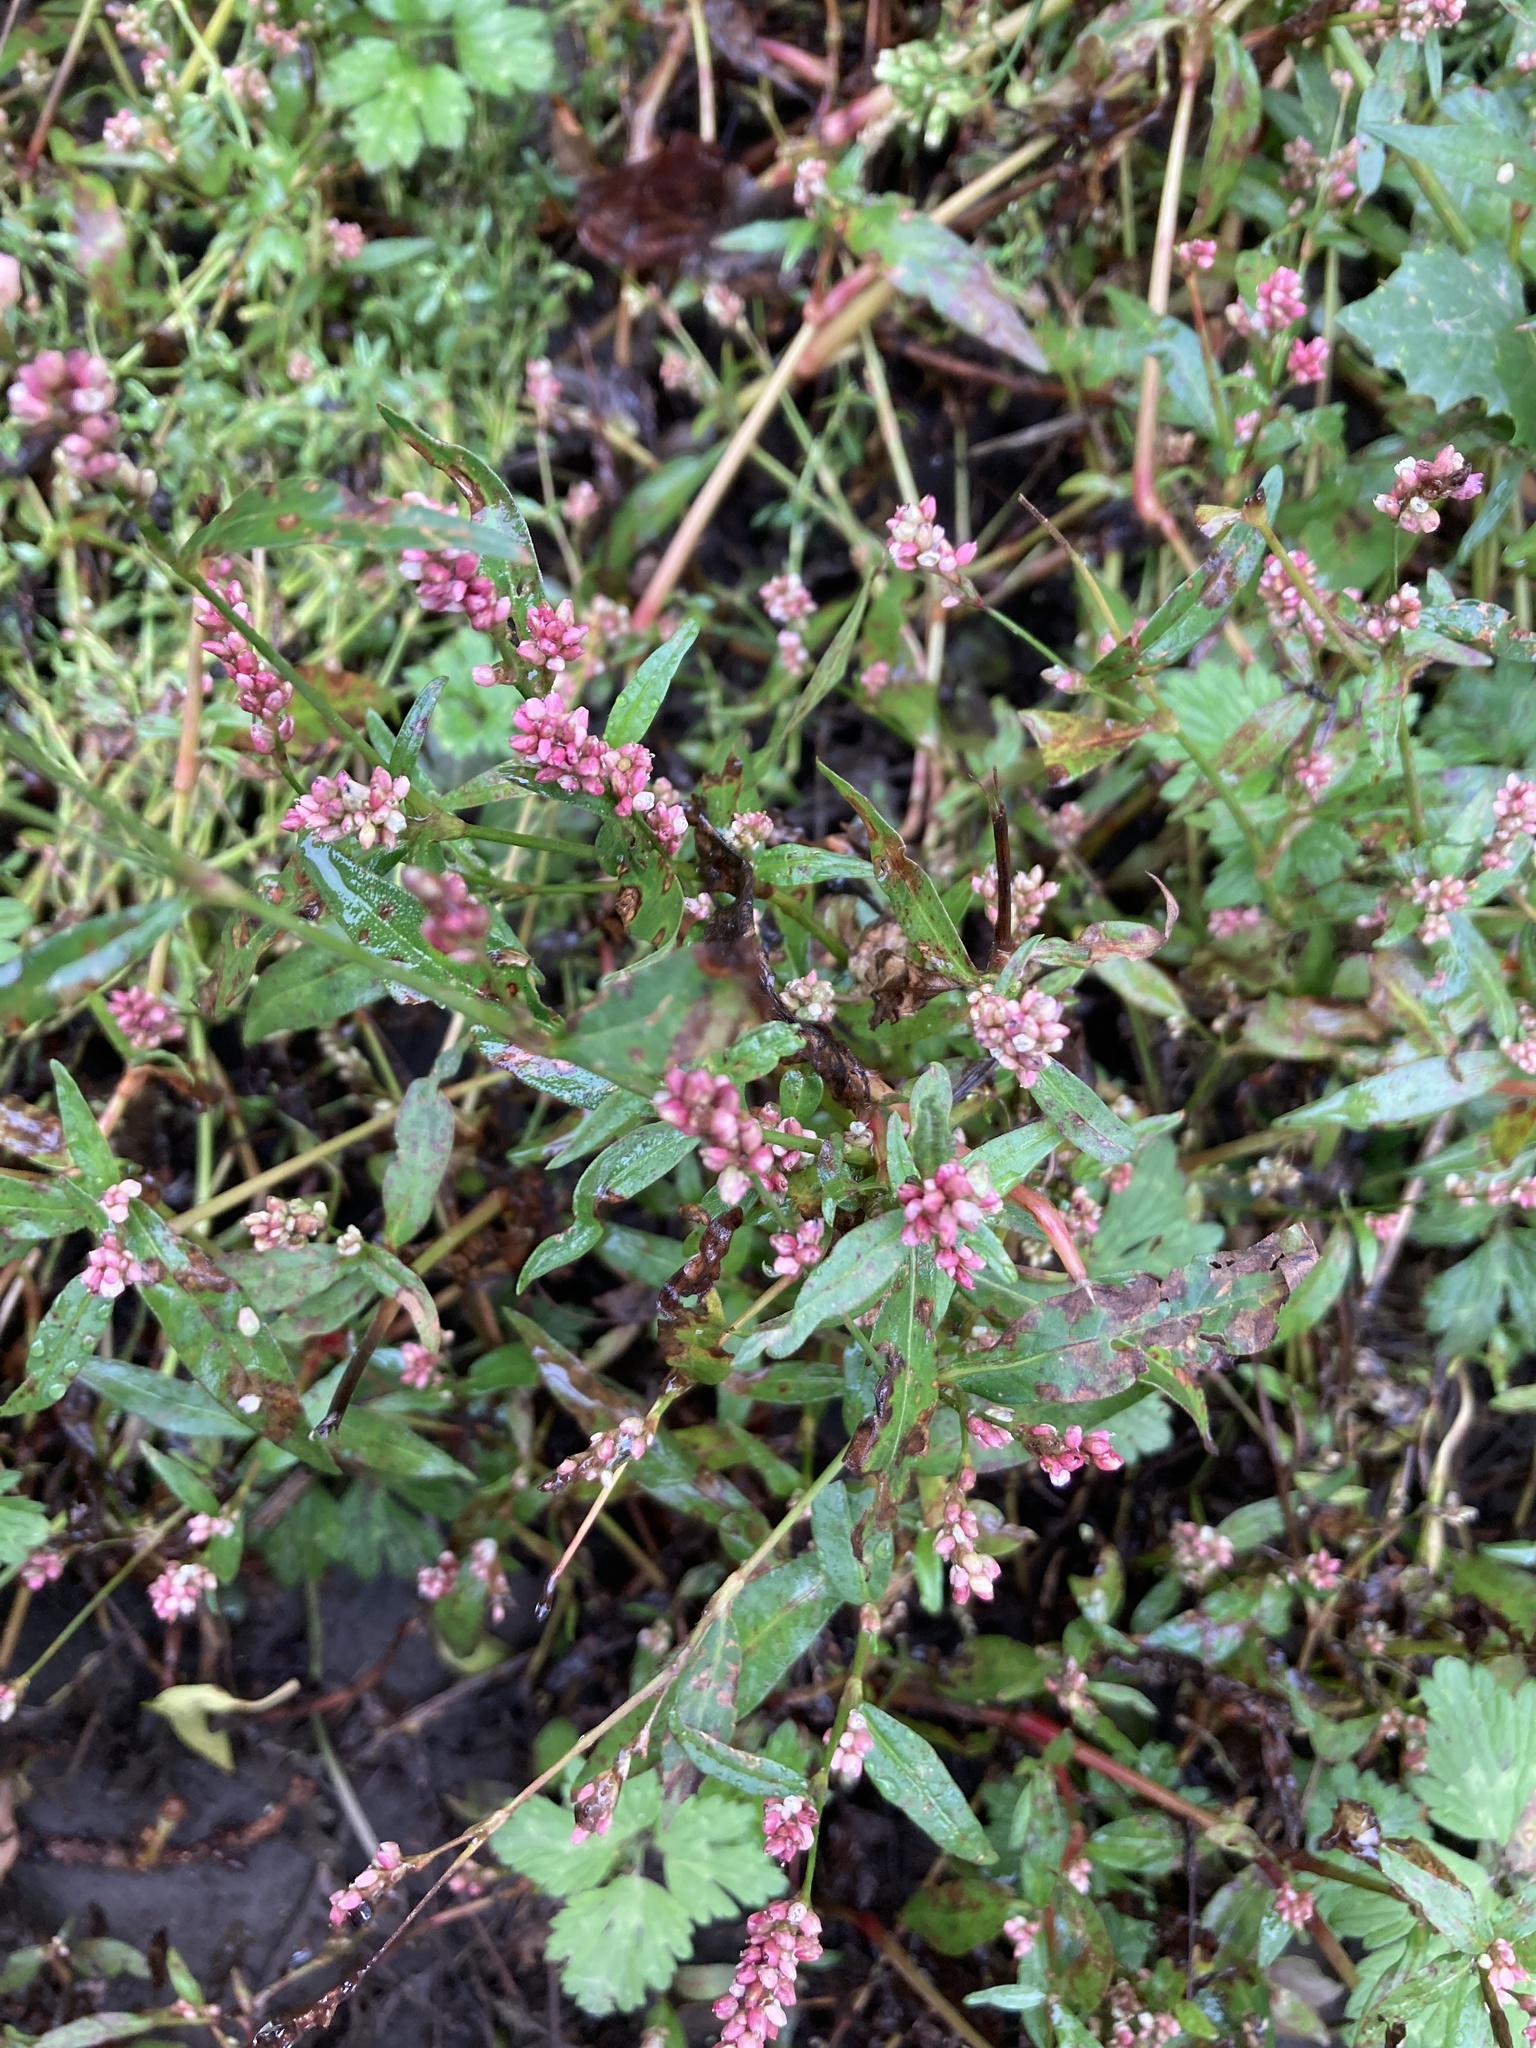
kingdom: Plantae
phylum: Tracheophyta
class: Magnoliopsida
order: Caryophyllales
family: Polygonaceae
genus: Persicaria
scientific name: Persicaria maculosa
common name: Redshank
